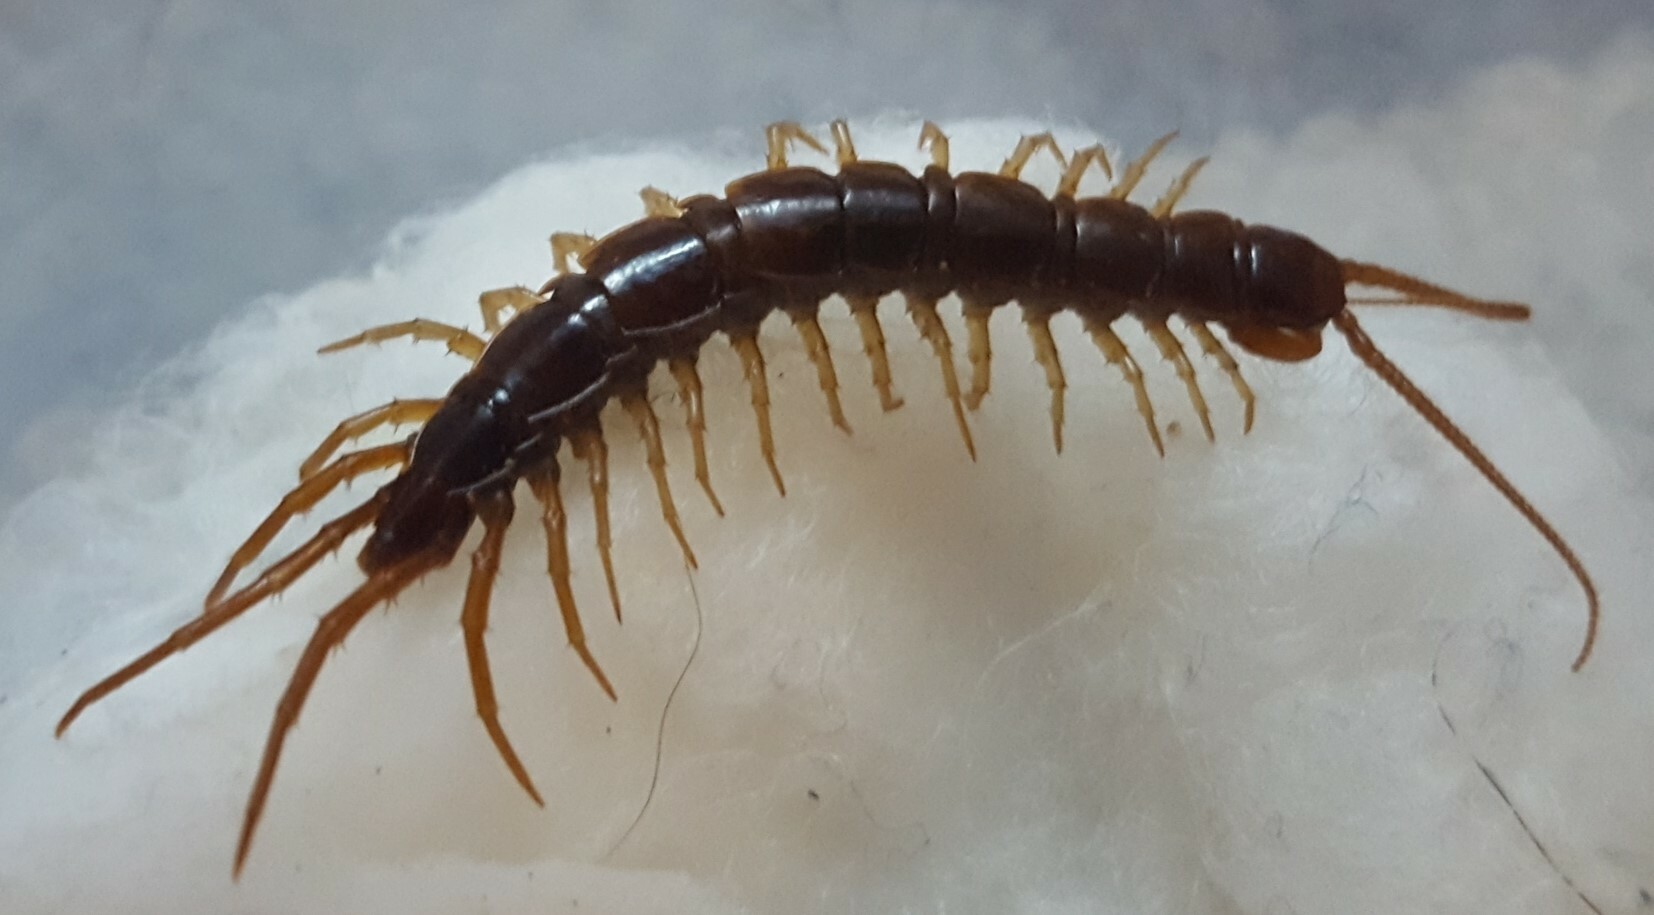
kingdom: Animalia
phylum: Arthropoda
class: Chilopoda
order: Lithobiomorpha
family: Lithobiidae
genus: Lithobius
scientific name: Lithobius forficatus
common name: Centipede
